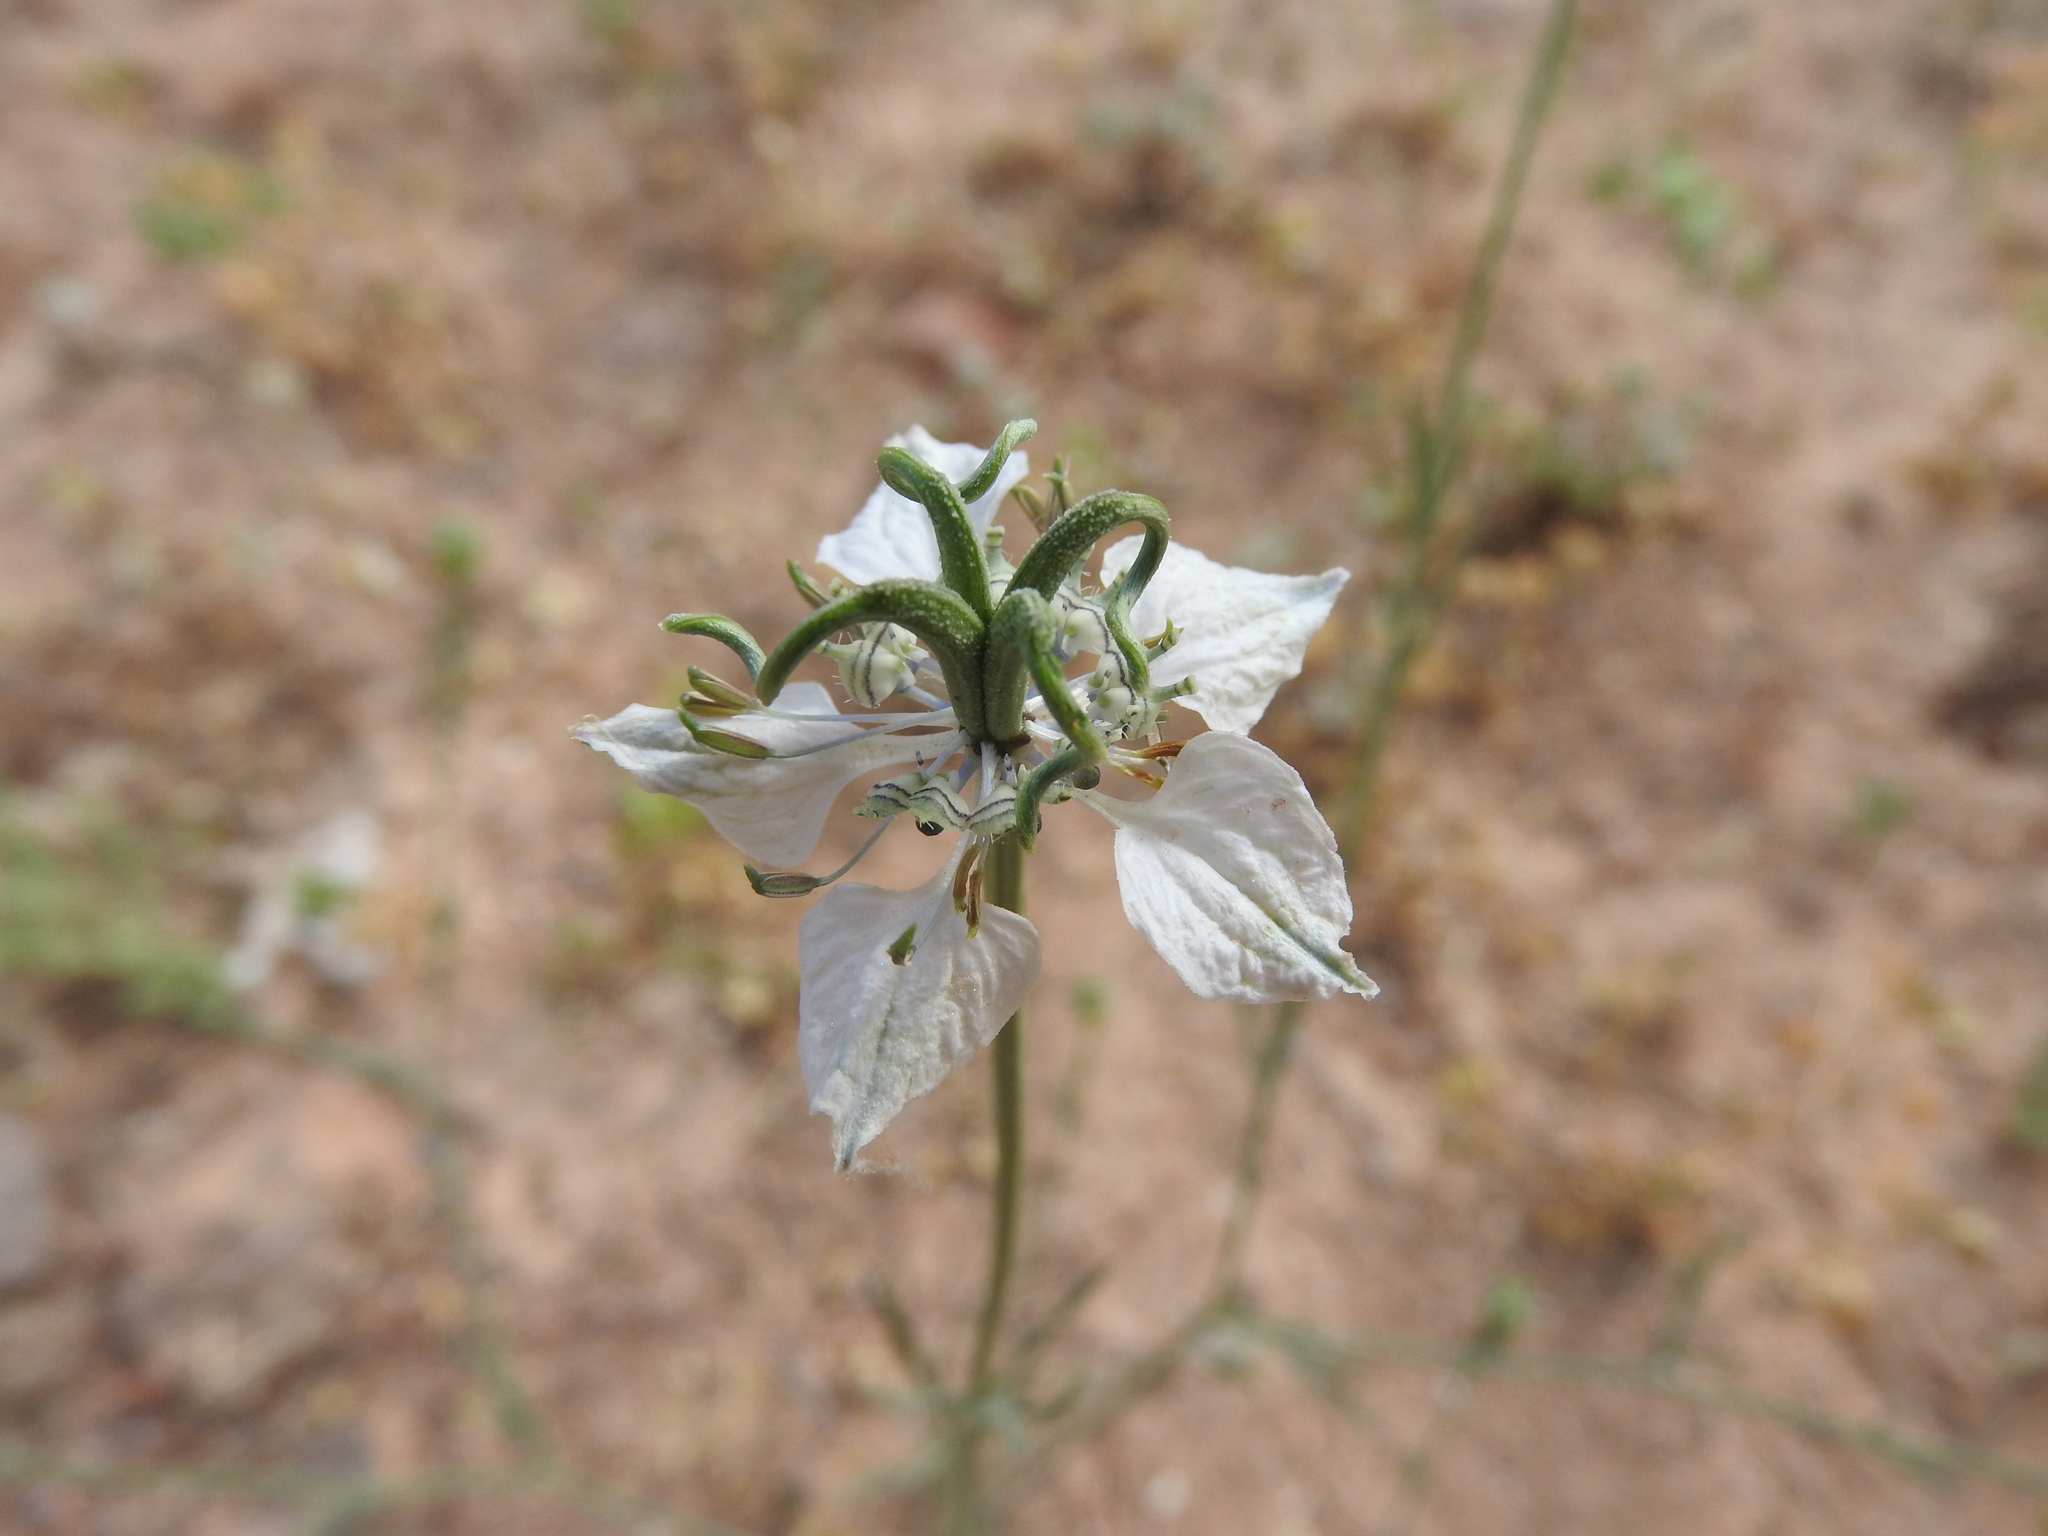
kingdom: Plantae
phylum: Tracheophyta
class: Magnoliopsida
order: Ranunculales
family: Ranunculaceae
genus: Nigella
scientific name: Nigella arvensis
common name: Wild fennel-flower
